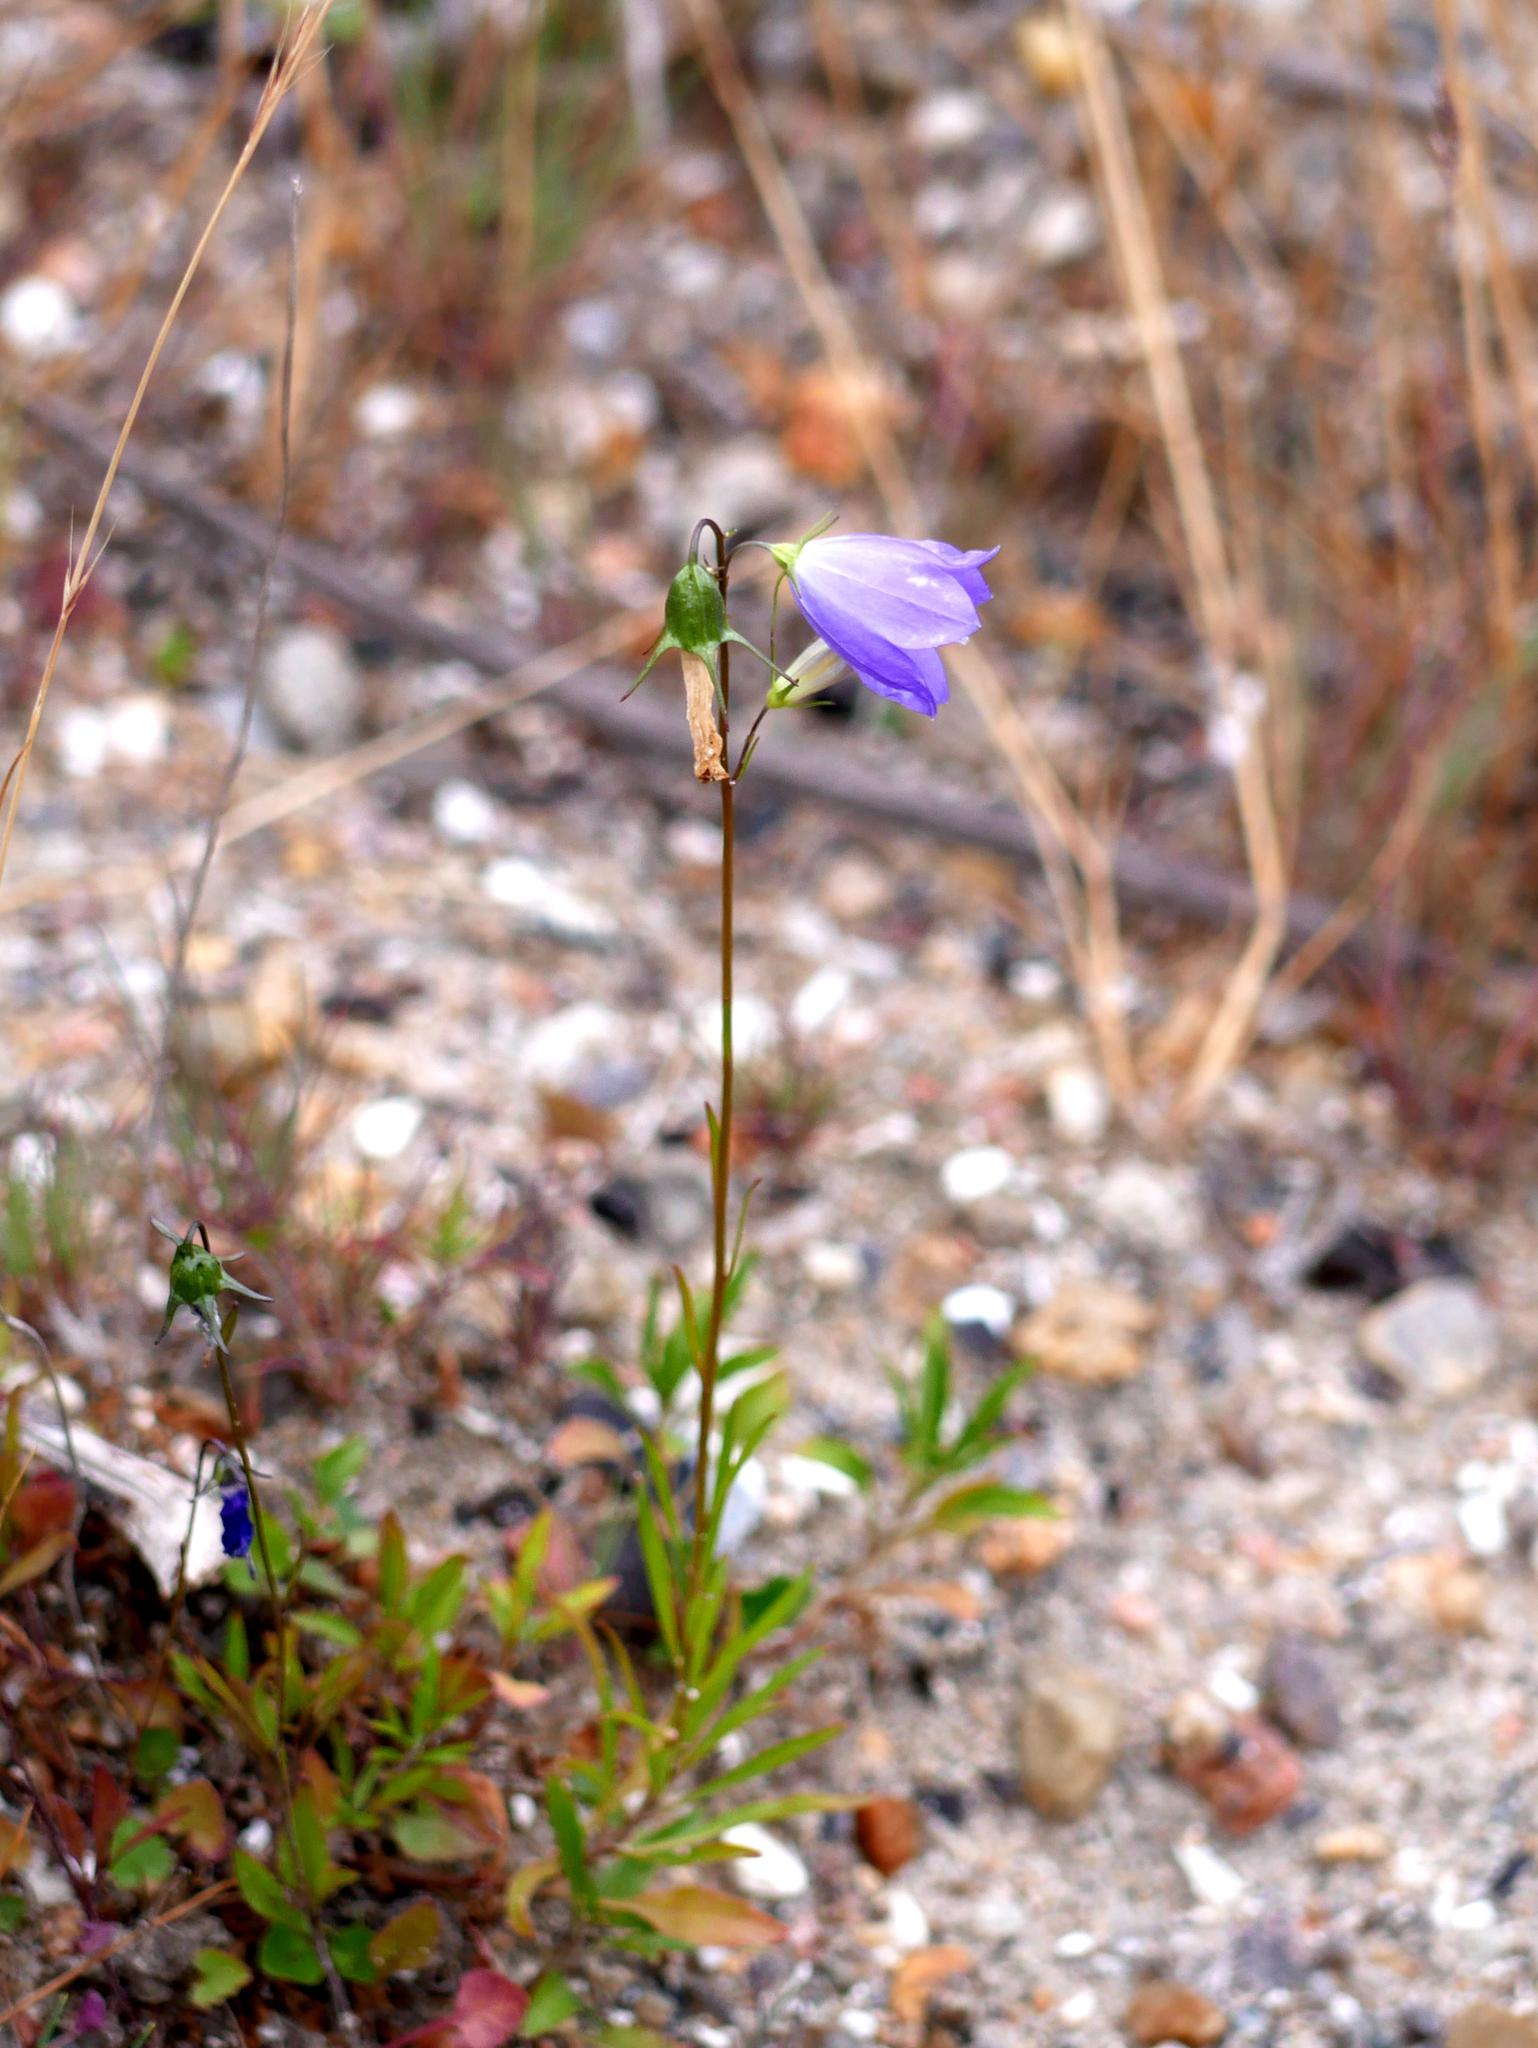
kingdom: Plantae
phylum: Tracheophyta
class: Magnoliopsida
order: Asterales
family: Campanulaceae
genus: Campanula
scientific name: Campanula rotundifolia
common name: Harebell
